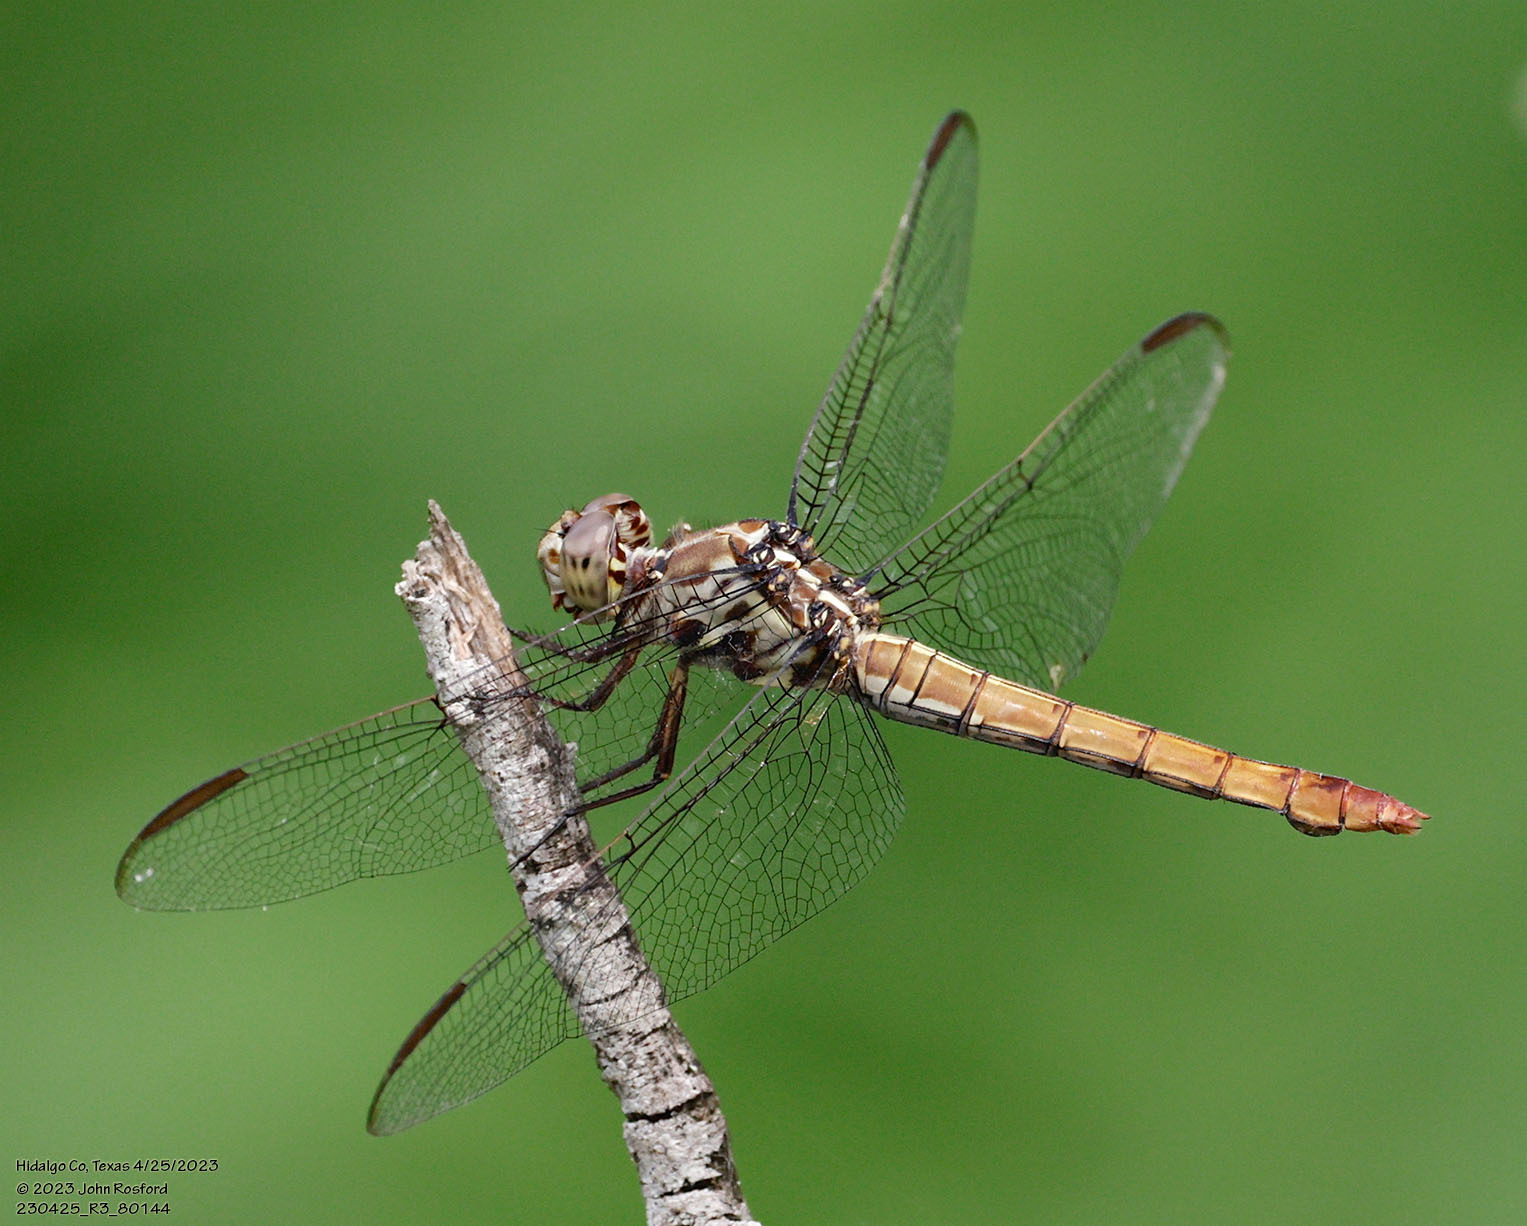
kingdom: Animalia
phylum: Arthropoda
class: Insecta
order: Odonata
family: Libellulidae
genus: Orthemis
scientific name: Orthemis ferruginea
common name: Roseate skimmer
